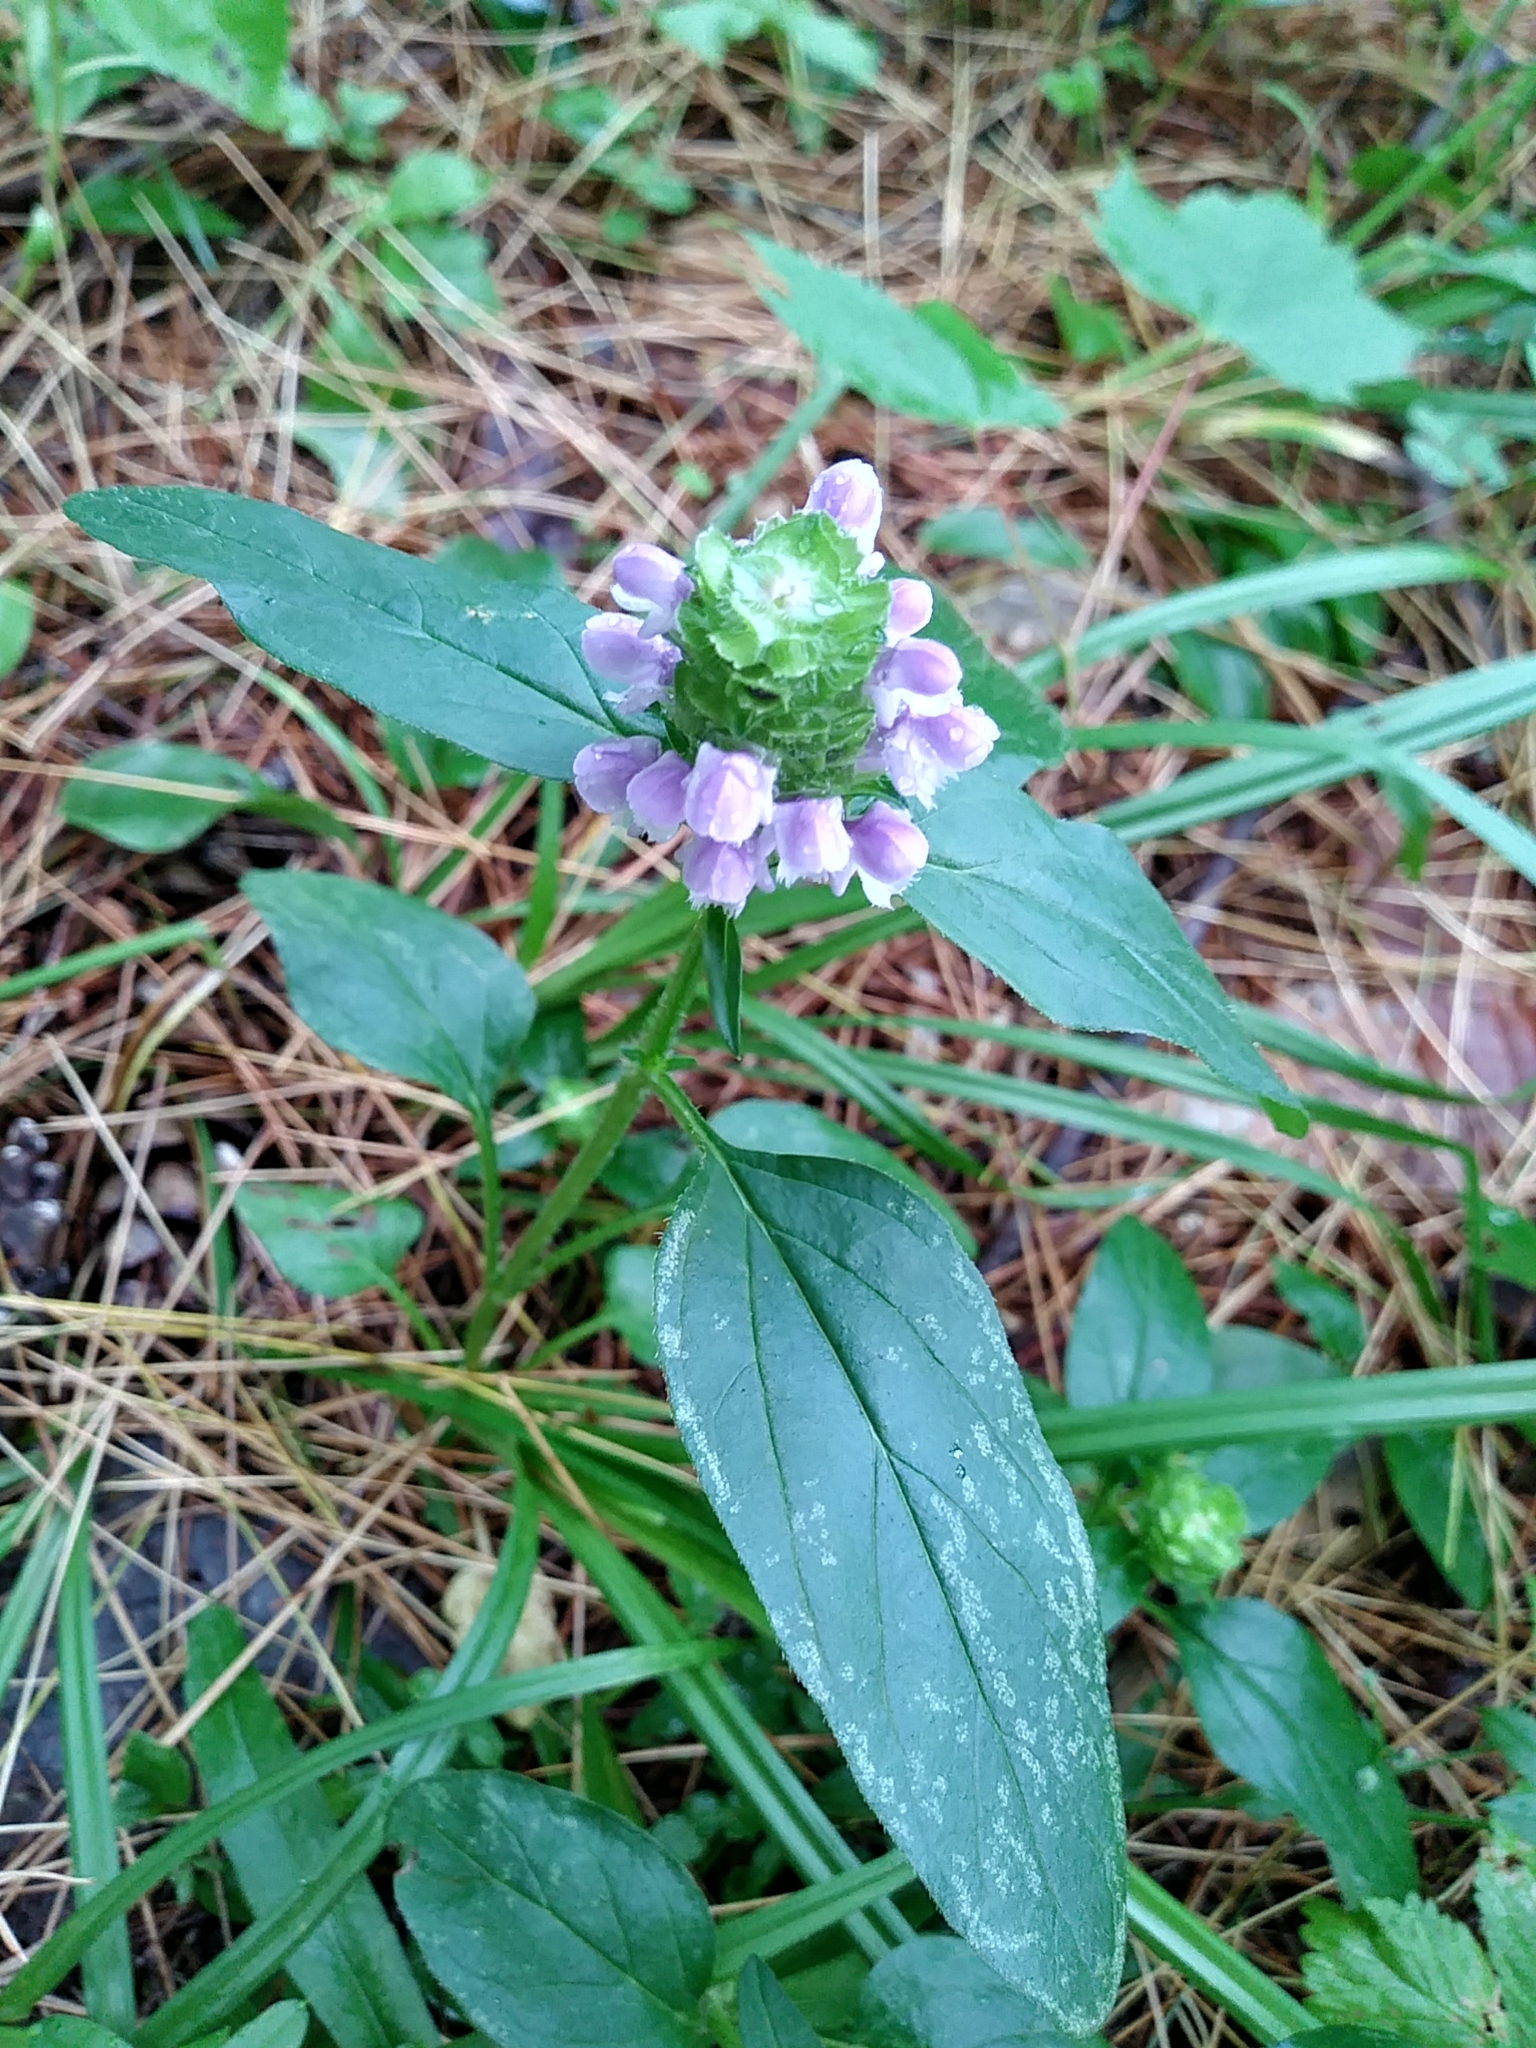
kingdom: Plantae
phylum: Tracheophyta
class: Magnoliopsida
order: Lamiales
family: Lamiaceae
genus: Prunella
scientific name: Prunella vulgaris
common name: Heal-all
